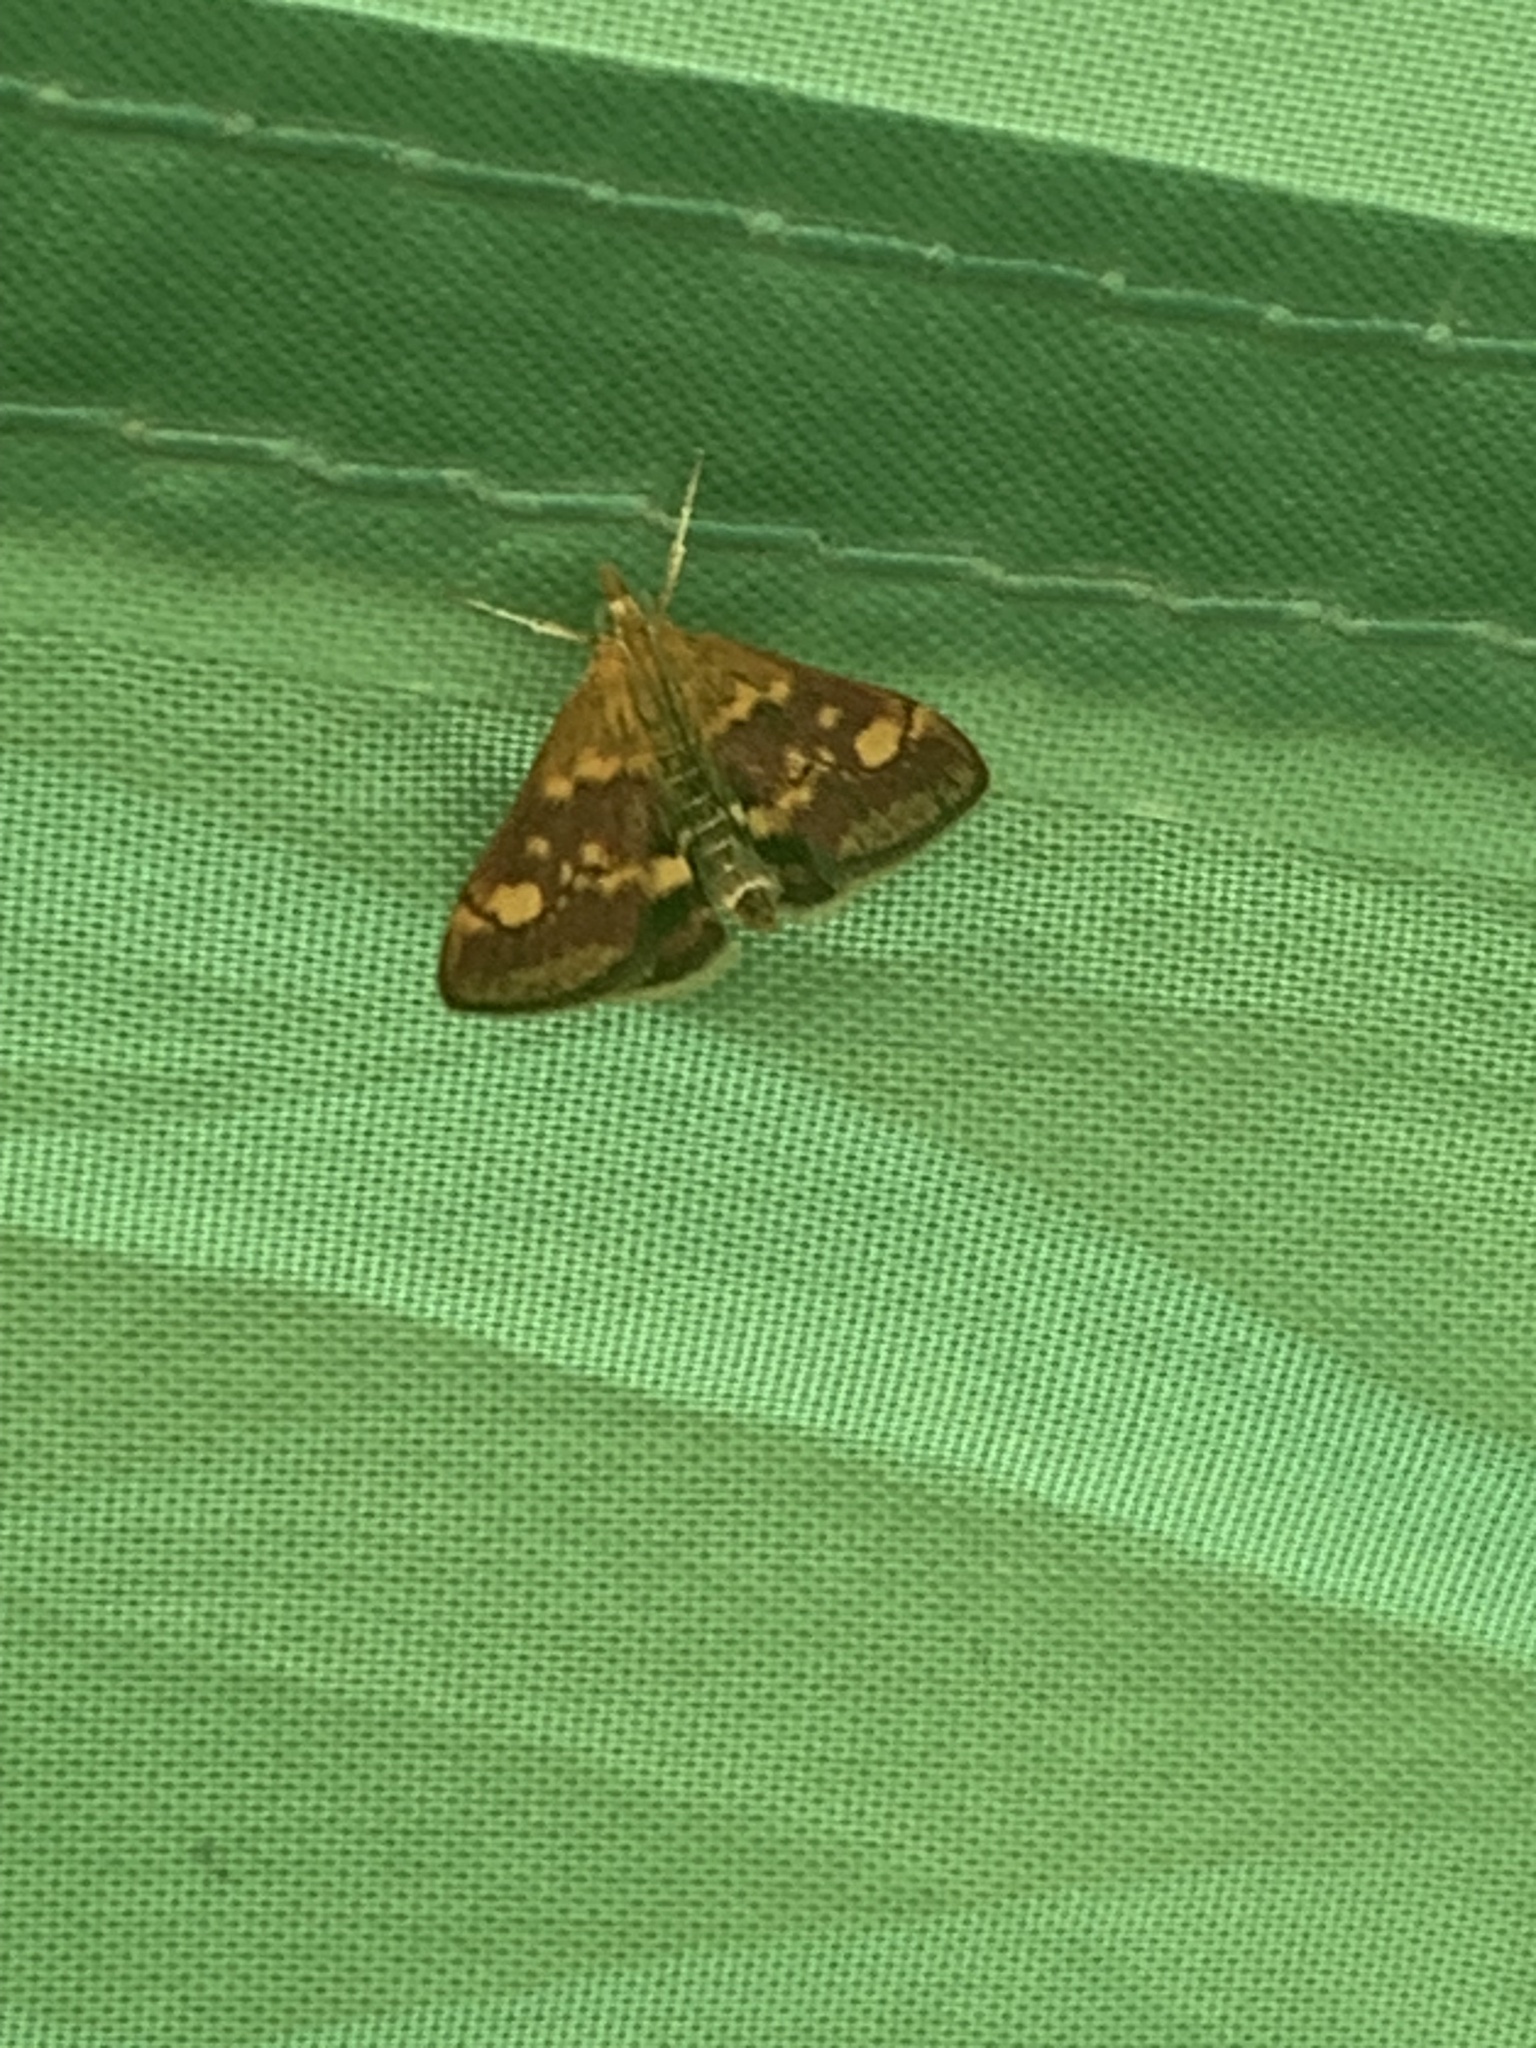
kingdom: Animalia
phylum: Arthropoda
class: Insecta
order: Lepidoptera
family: Crambidae
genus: Pyrausta
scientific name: Pyrausta aurata
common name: Small purple & gold
